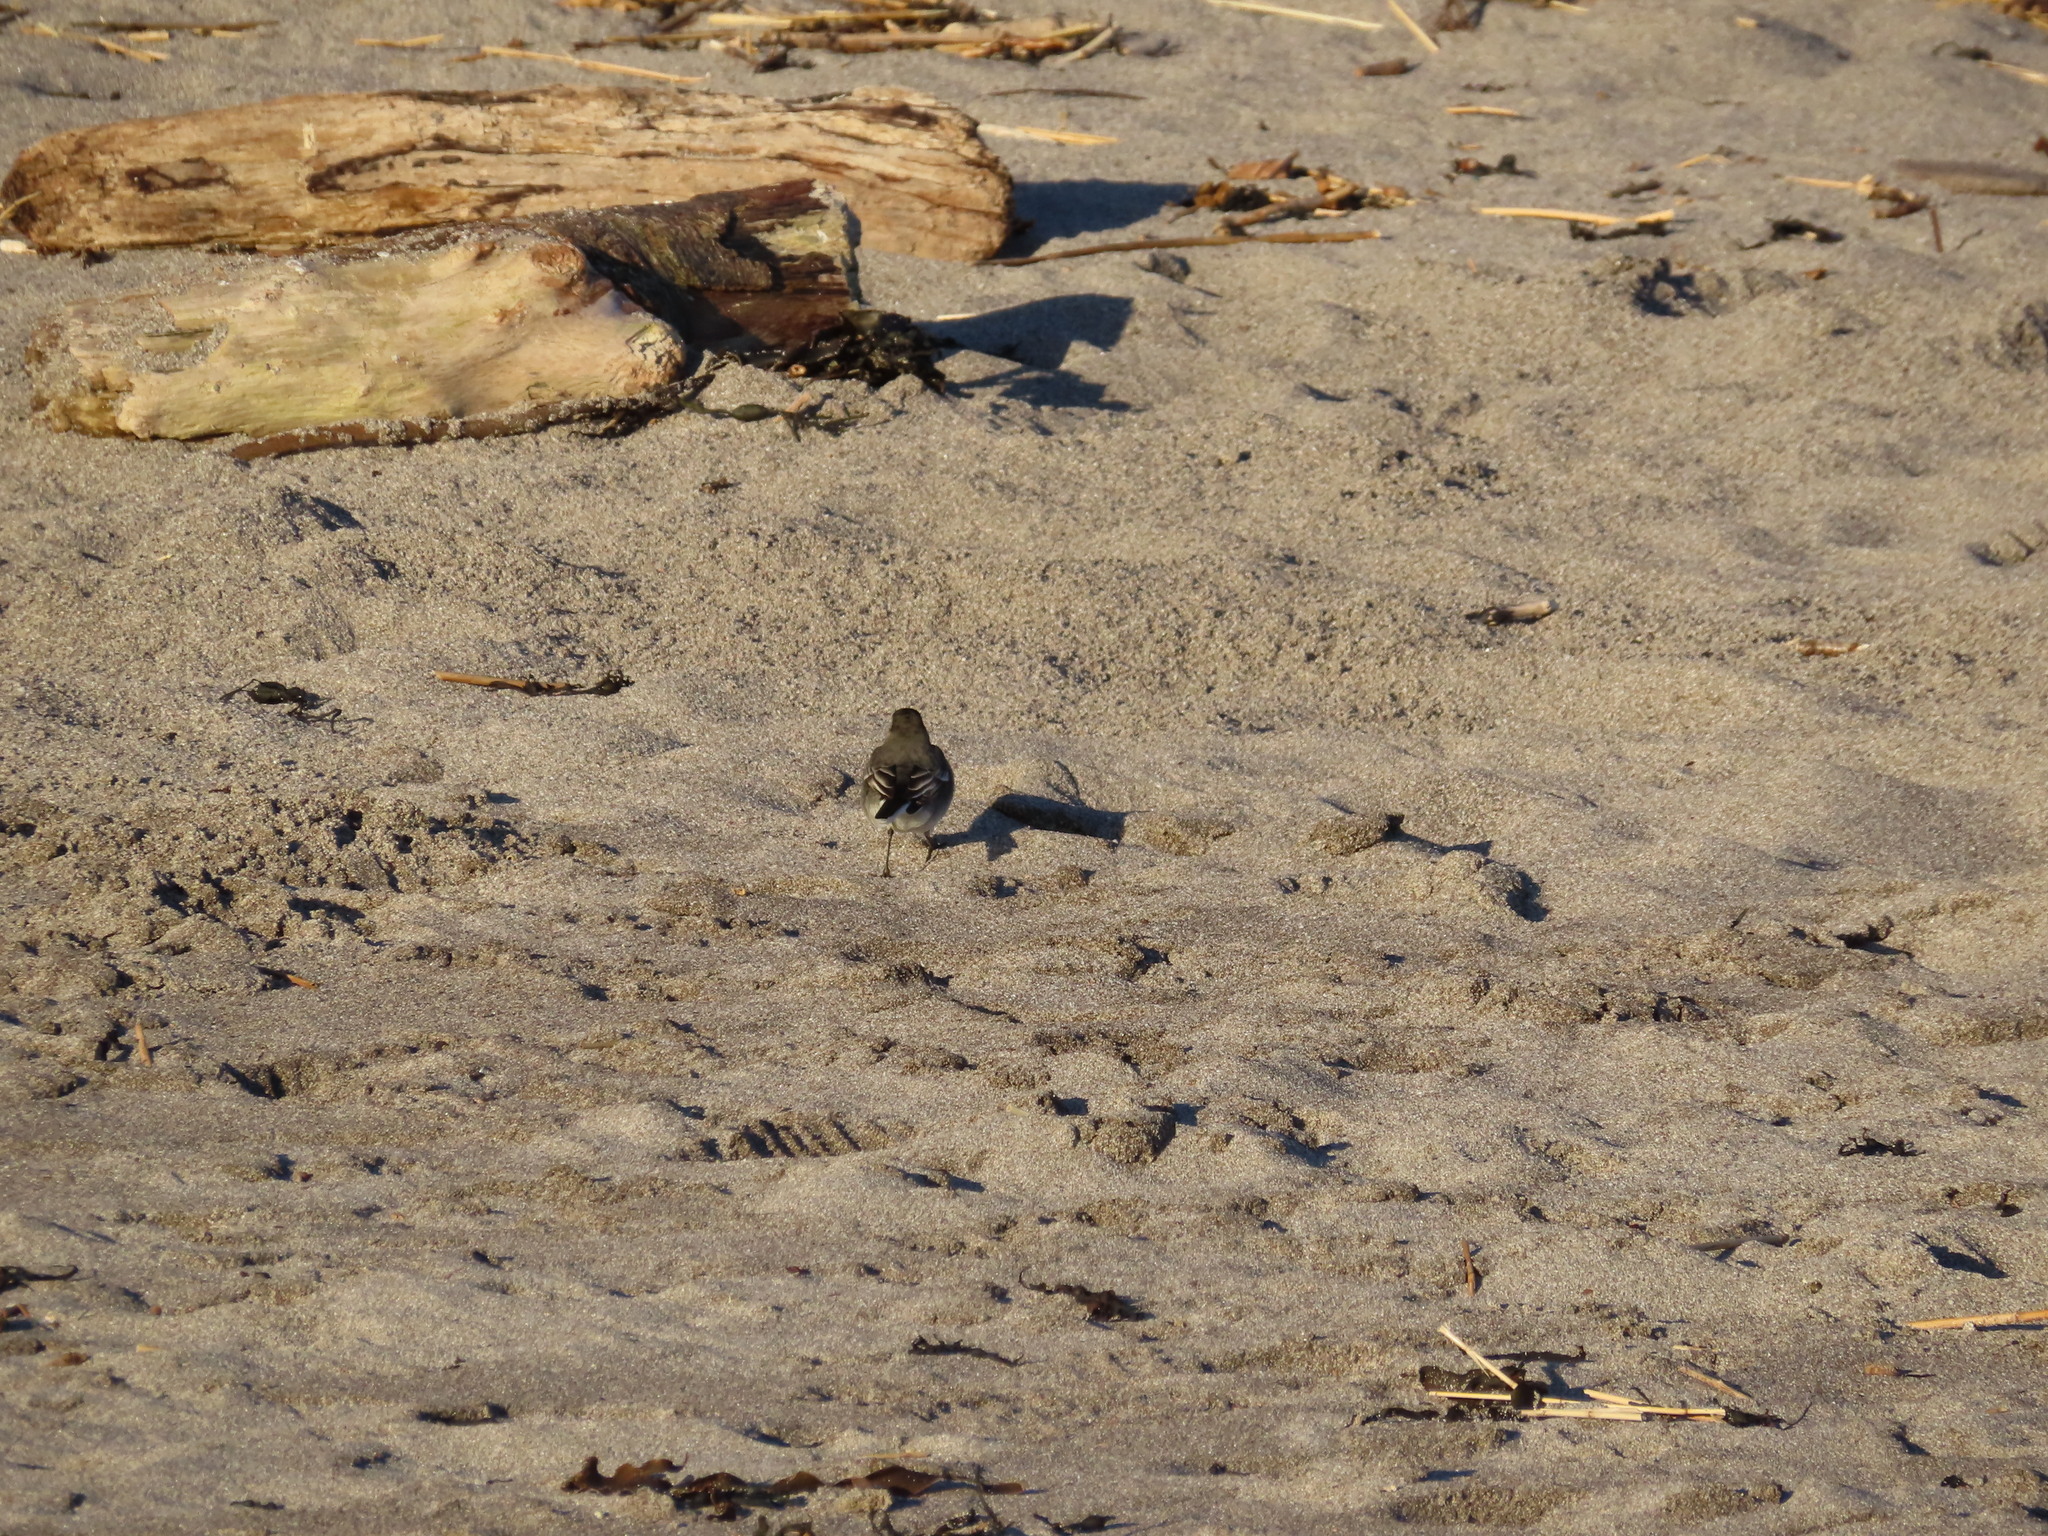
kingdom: Animalia
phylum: Chordata
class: Aves
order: Passeriformes
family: Motacillidae
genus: Motacilla
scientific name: Motacilla alba
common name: White wagtail
